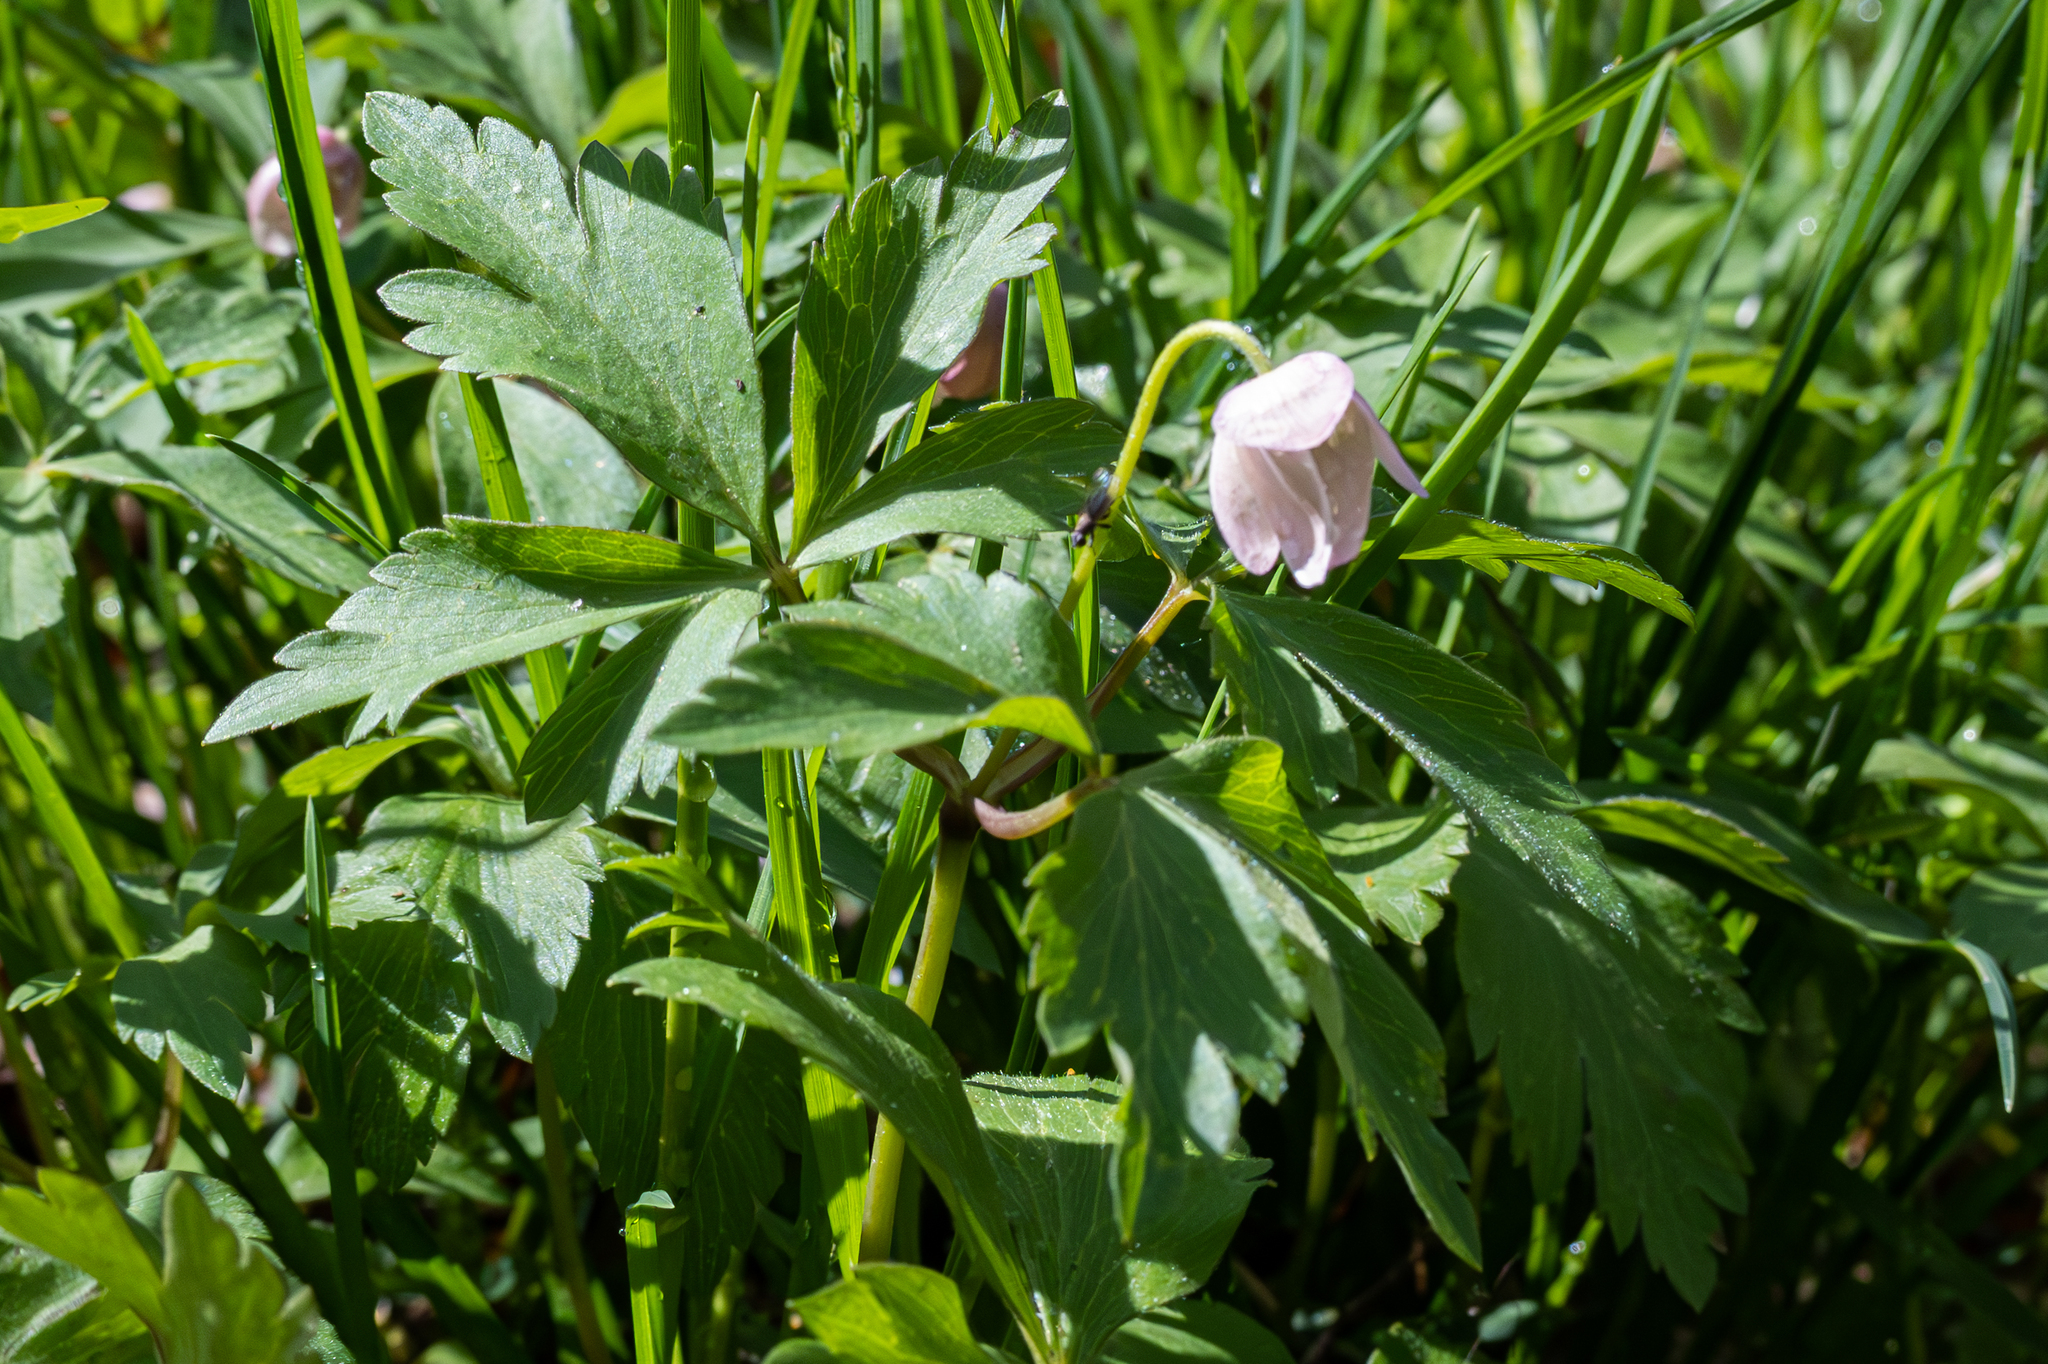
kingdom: Plantae
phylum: Tracheophyta
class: Magnoliopsida
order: Ranunculales
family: Ranunculaceae
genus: Anemone
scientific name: Anemone quinquefolia
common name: Wood anemone
